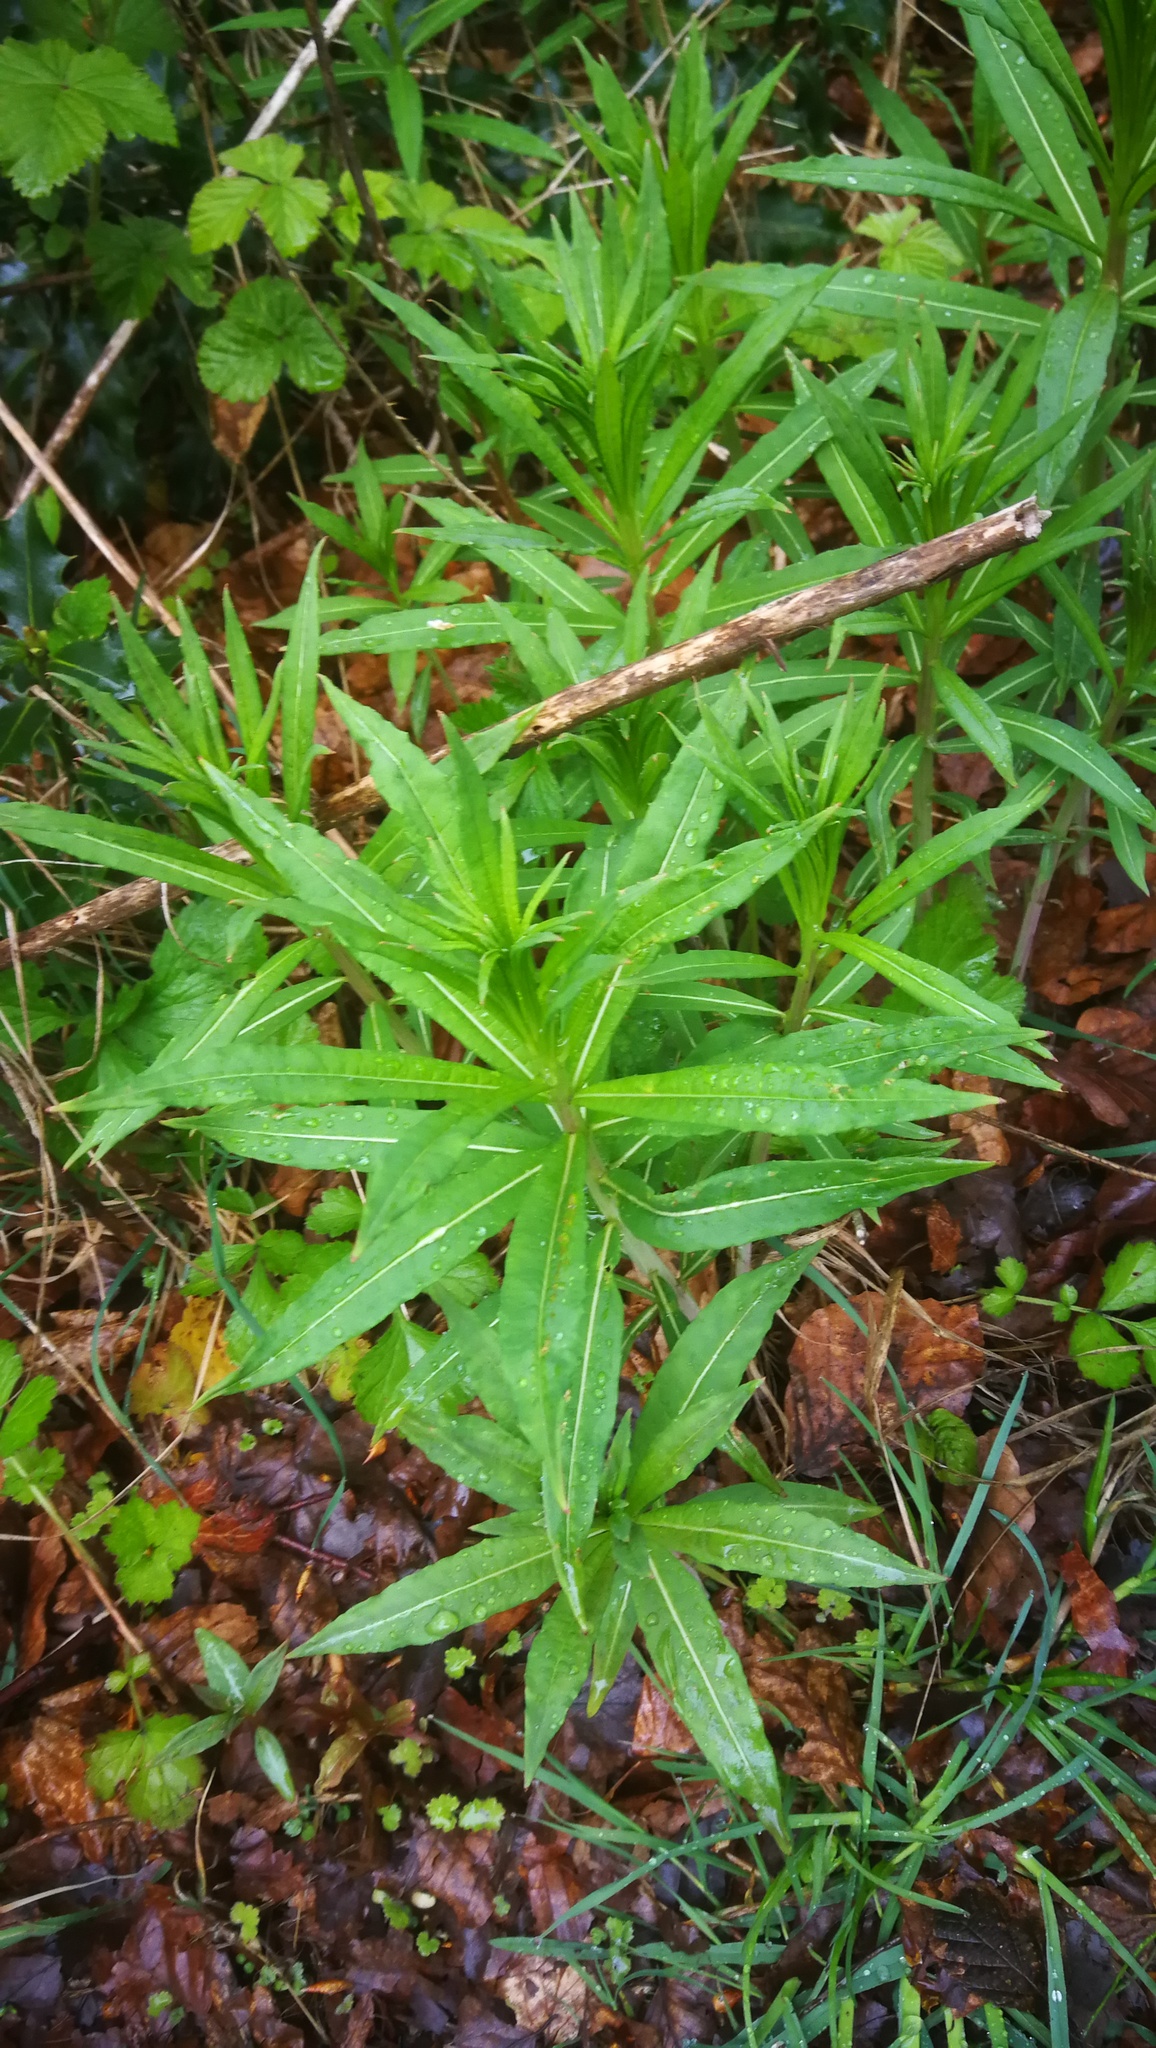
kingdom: Plantae
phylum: Tracheophyta
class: Magnoliopsida
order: Myrtales
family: Onagraceae
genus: Chamaenerion
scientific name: Chamaenerion angustifolium
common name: Fireweed
